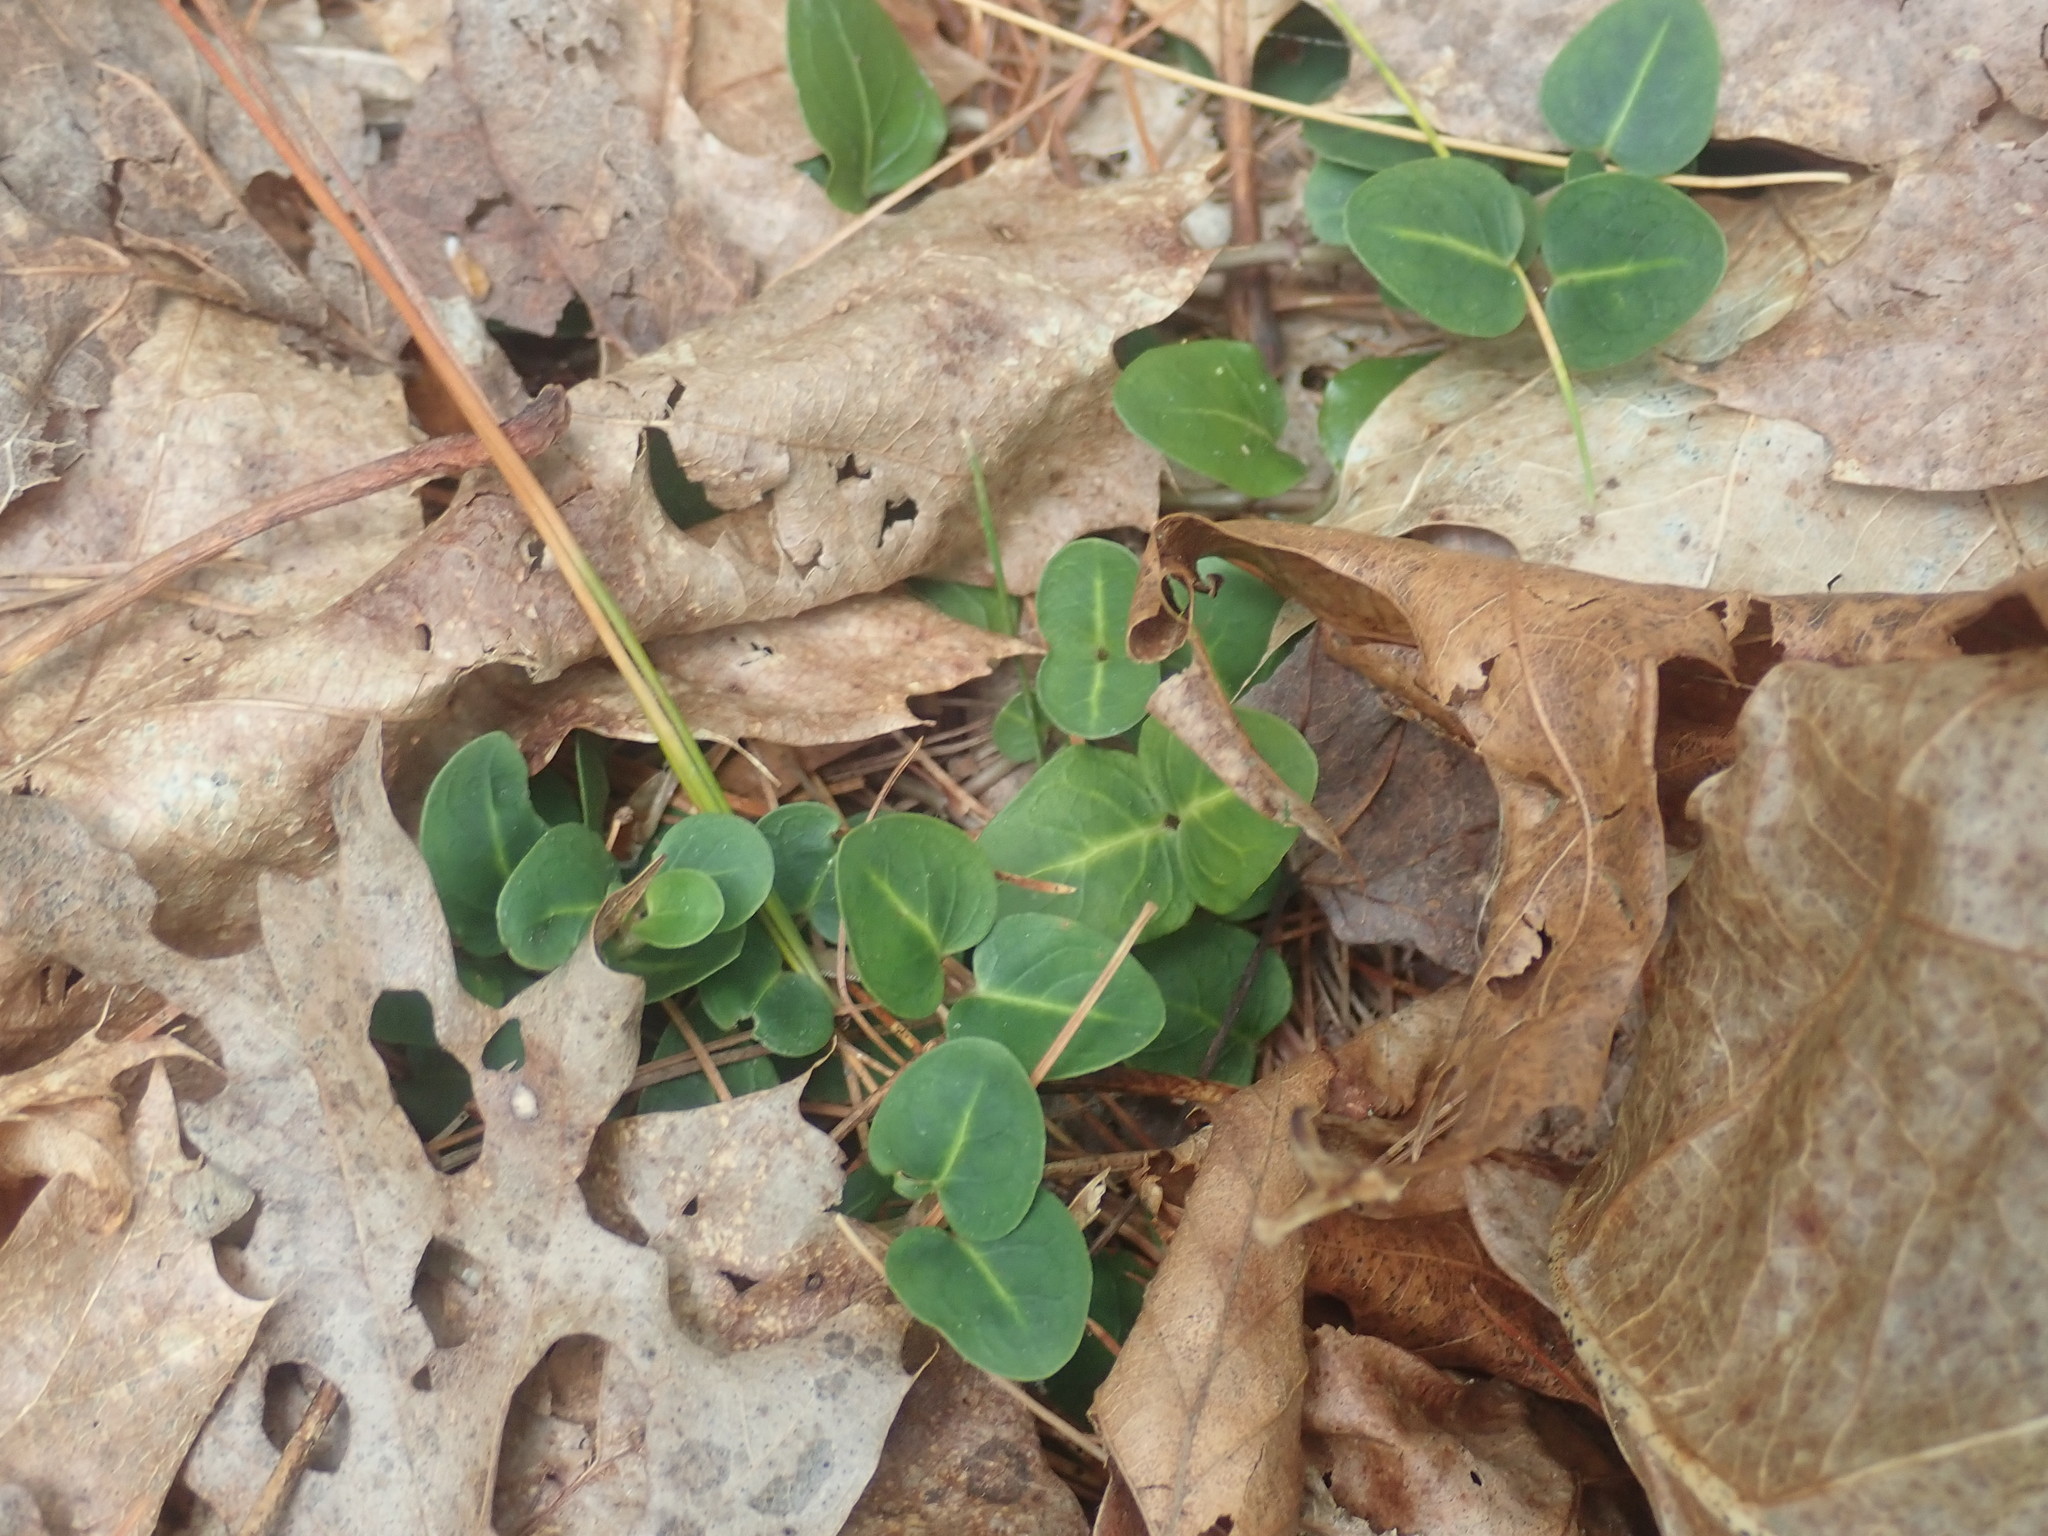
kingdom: Plantae
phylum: Tracheophyta
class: Magnoliopsida
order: Gentianales
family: Rubiaceae
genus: Mitchella
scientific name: Mitchella repens
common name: Partridge-berry
